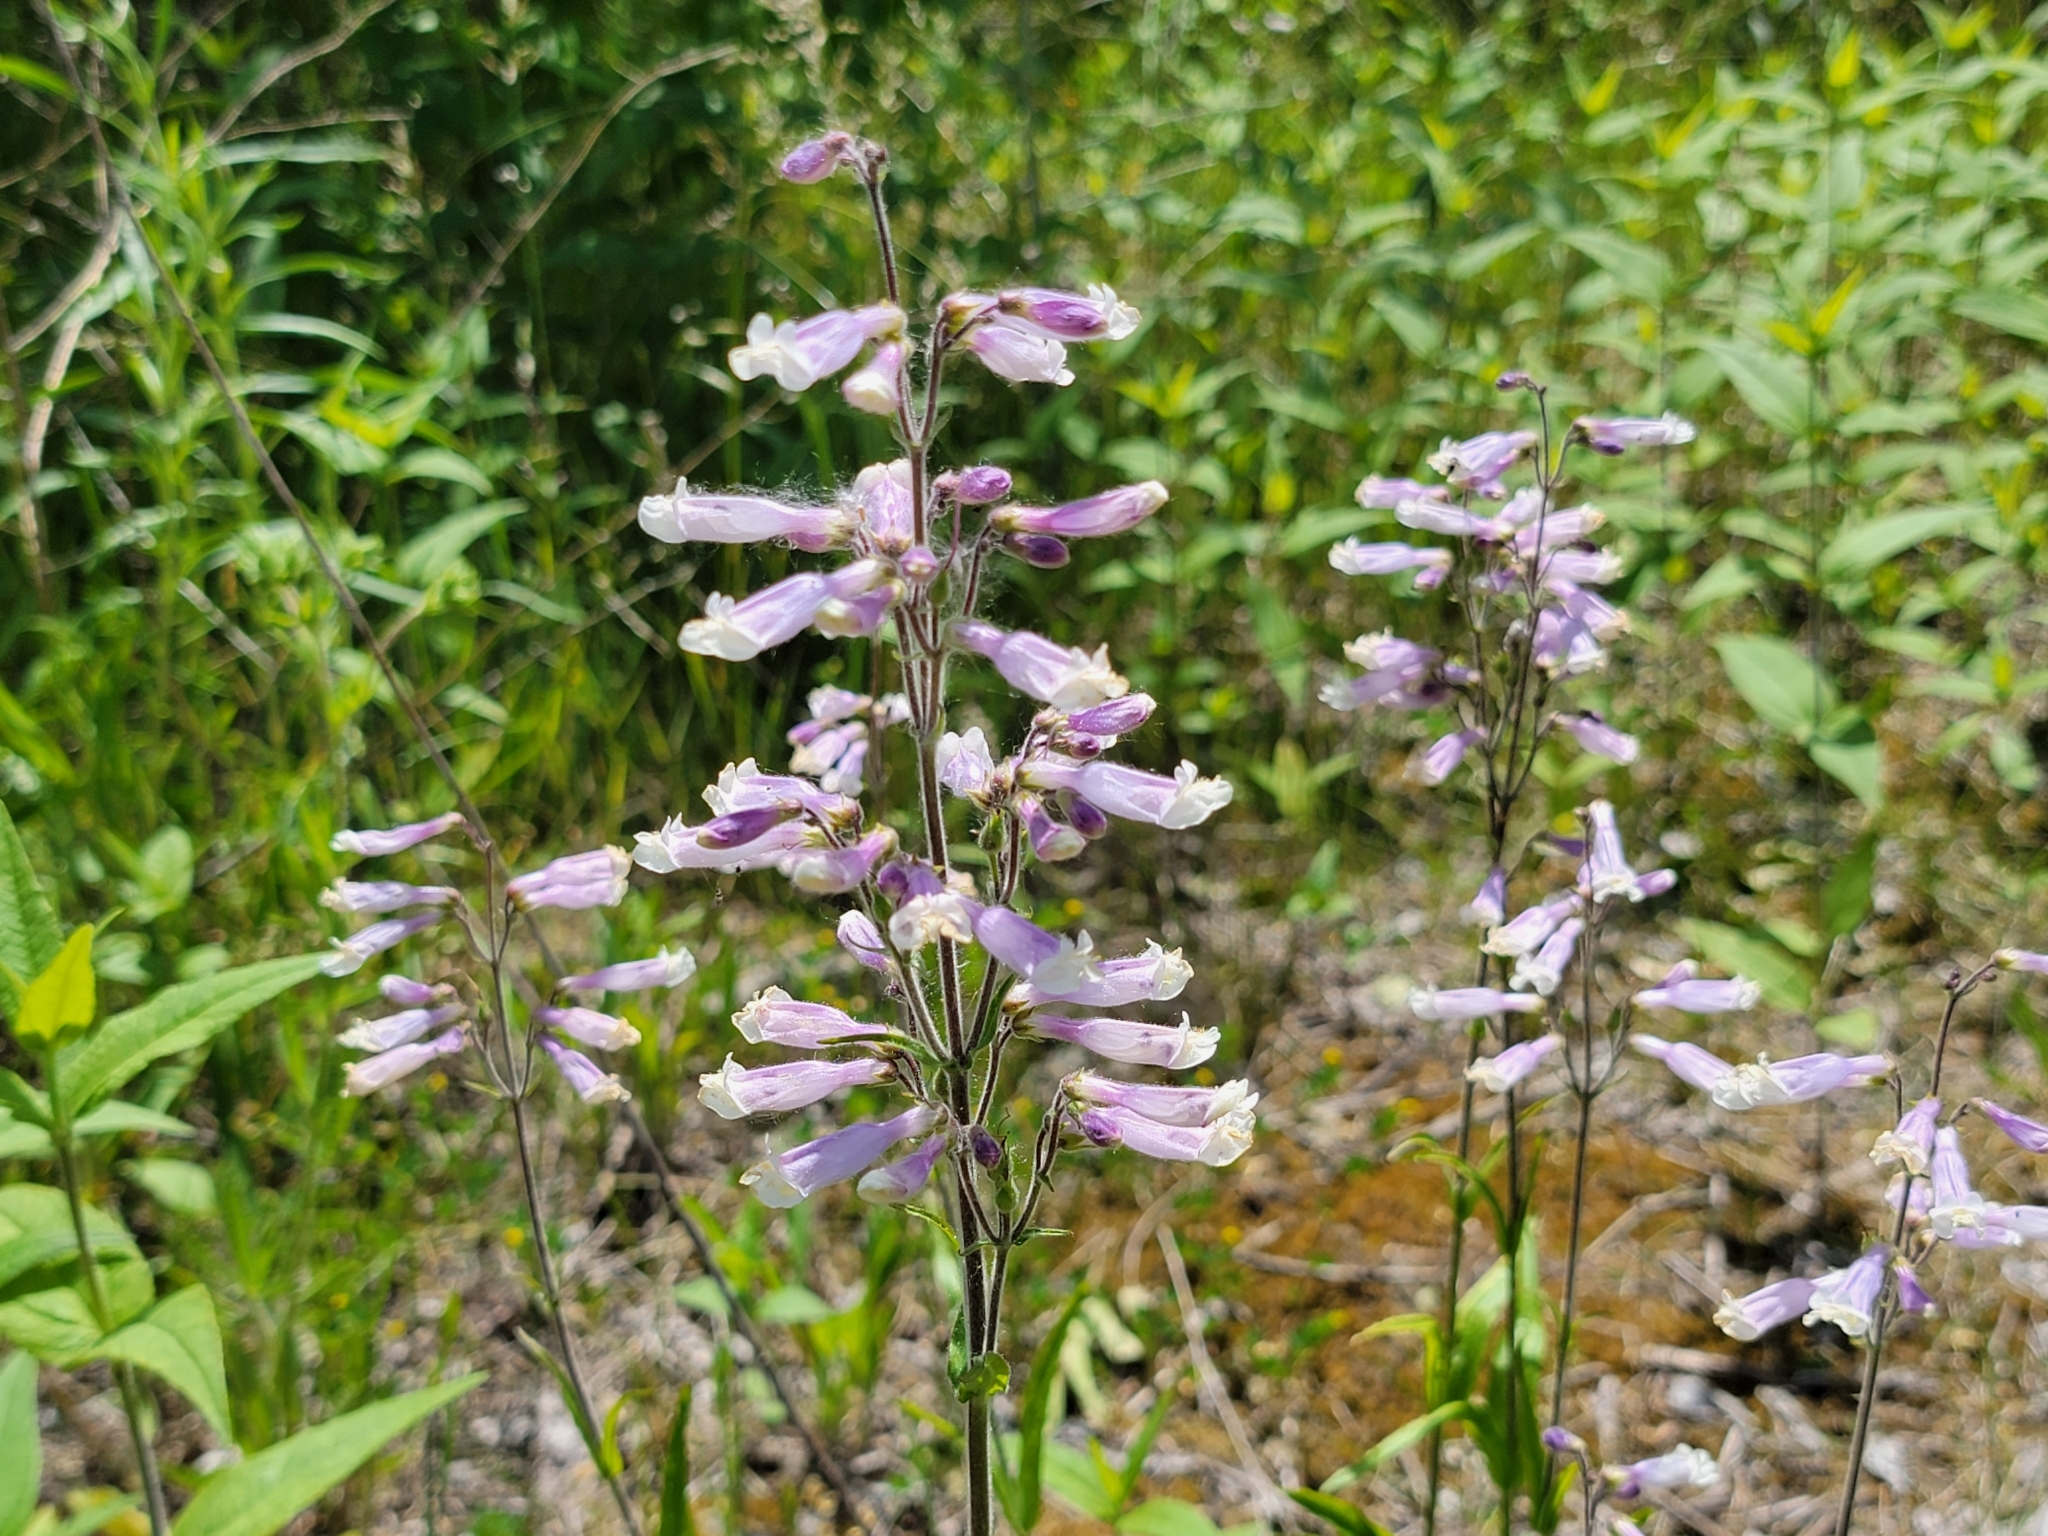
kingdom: Plantae
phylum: Tracheophyta
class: Magnoliopsida
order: Lamiales
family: Plantaginaceae
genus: Penstemon
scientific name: Penstemon hirsutus
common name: Hairy beardtongue
